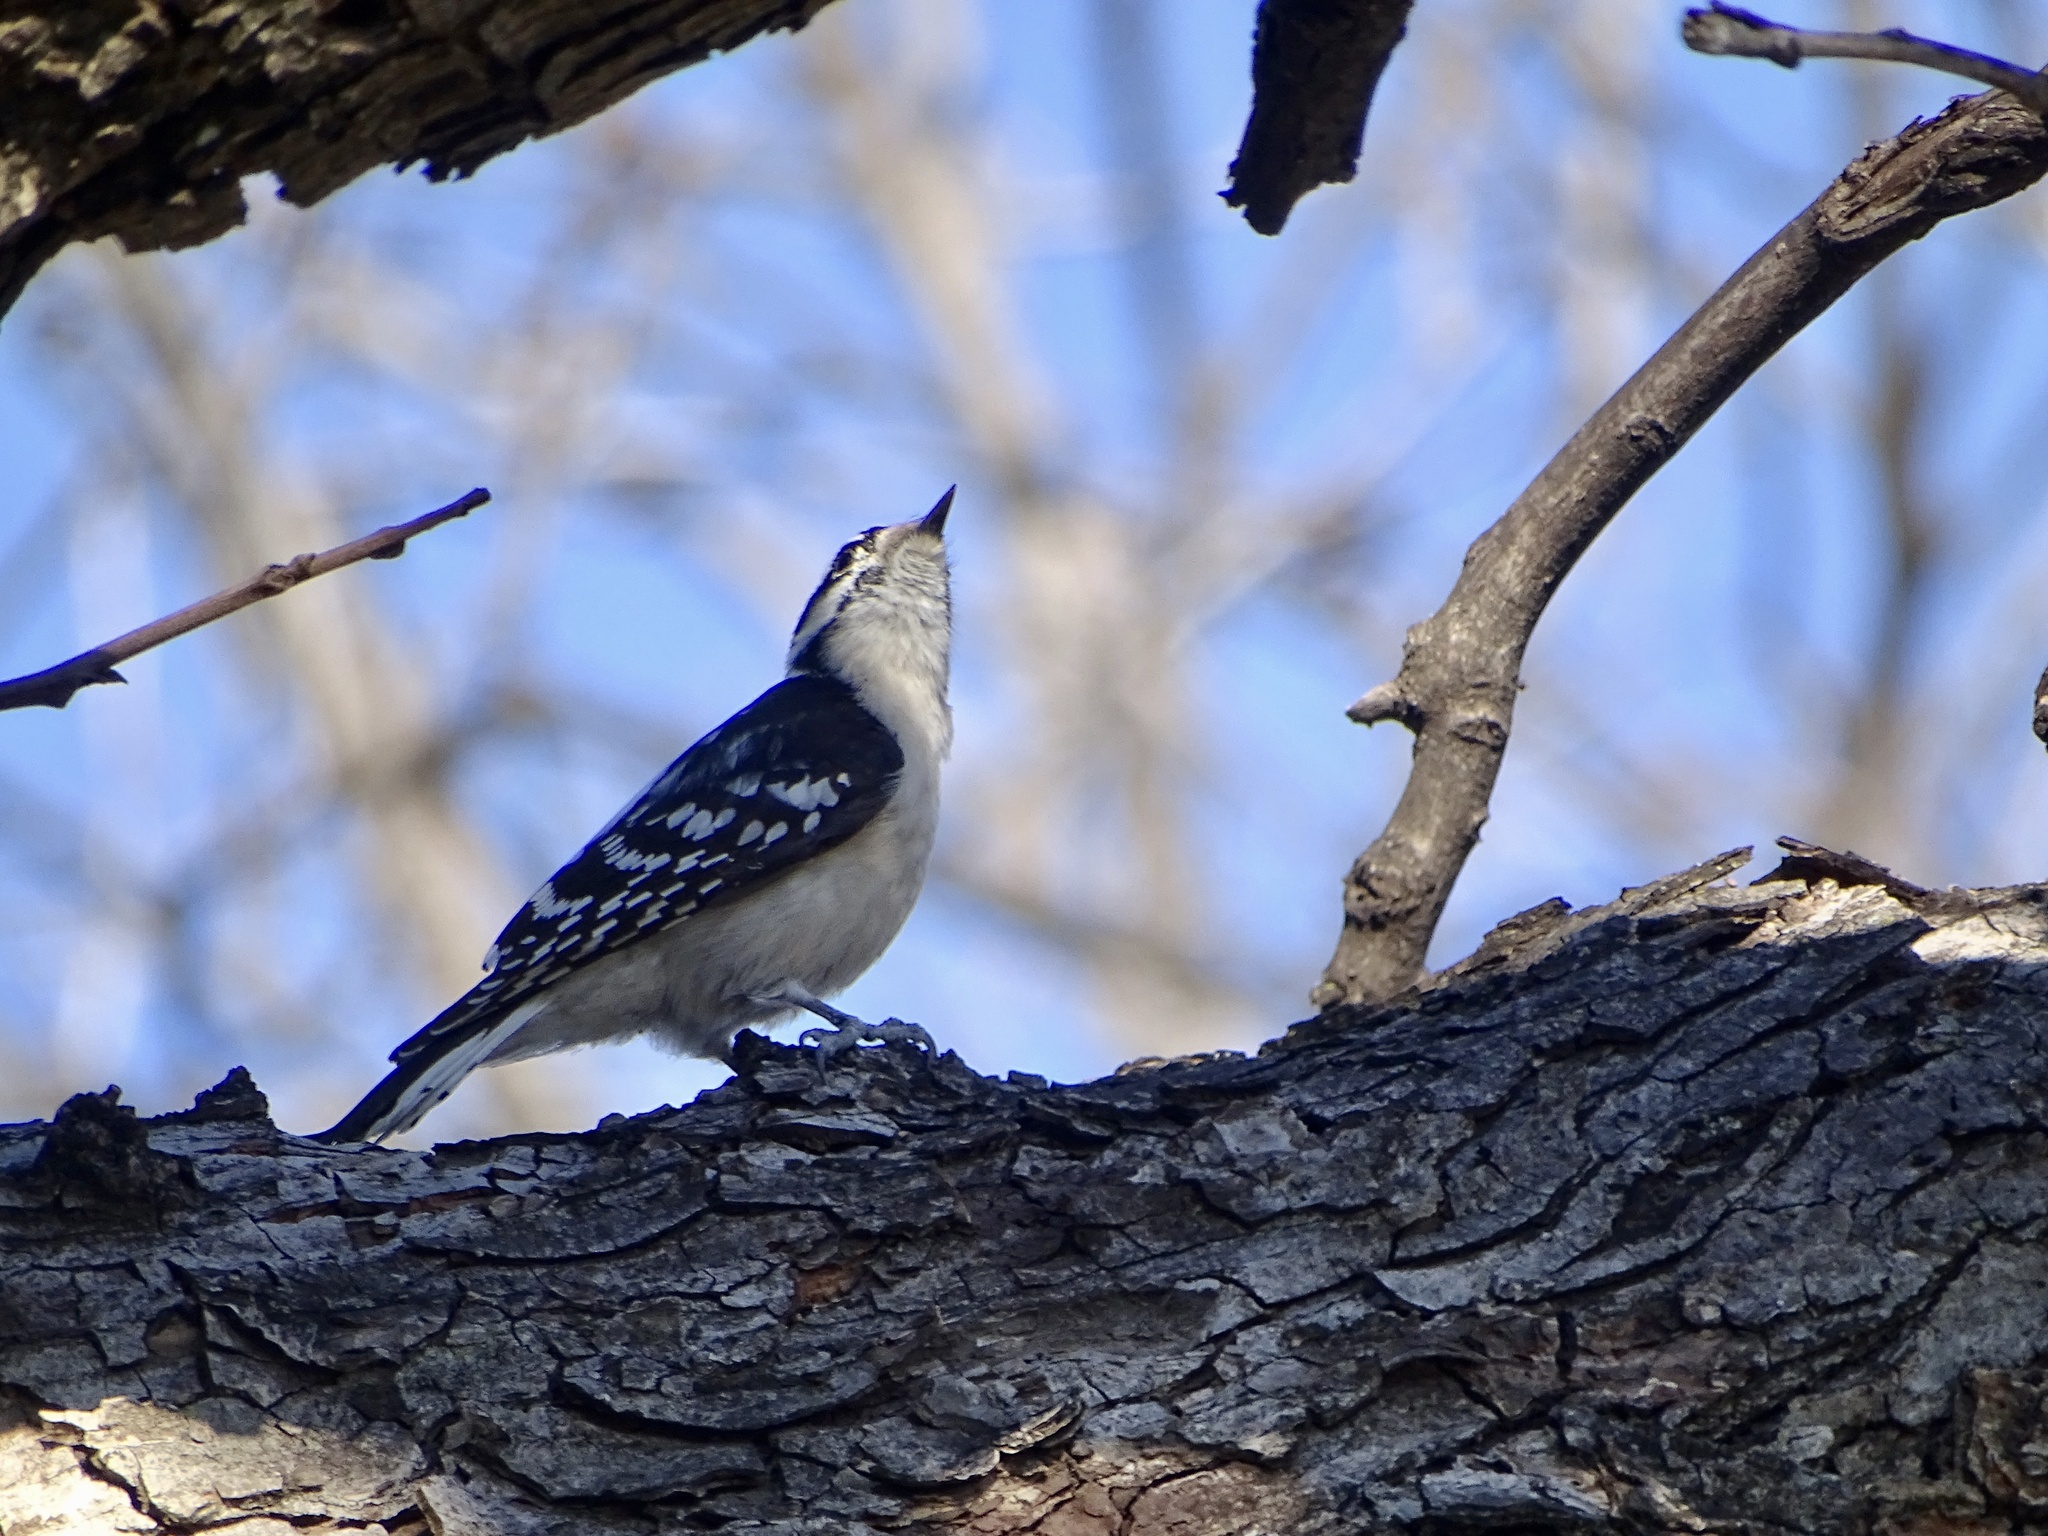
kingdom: Animalia
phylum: Chordata
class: Aves
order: Piciformes
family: Picidae
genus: Dryobates
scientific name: Dryobates pubescens
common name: Downy woodpecker
